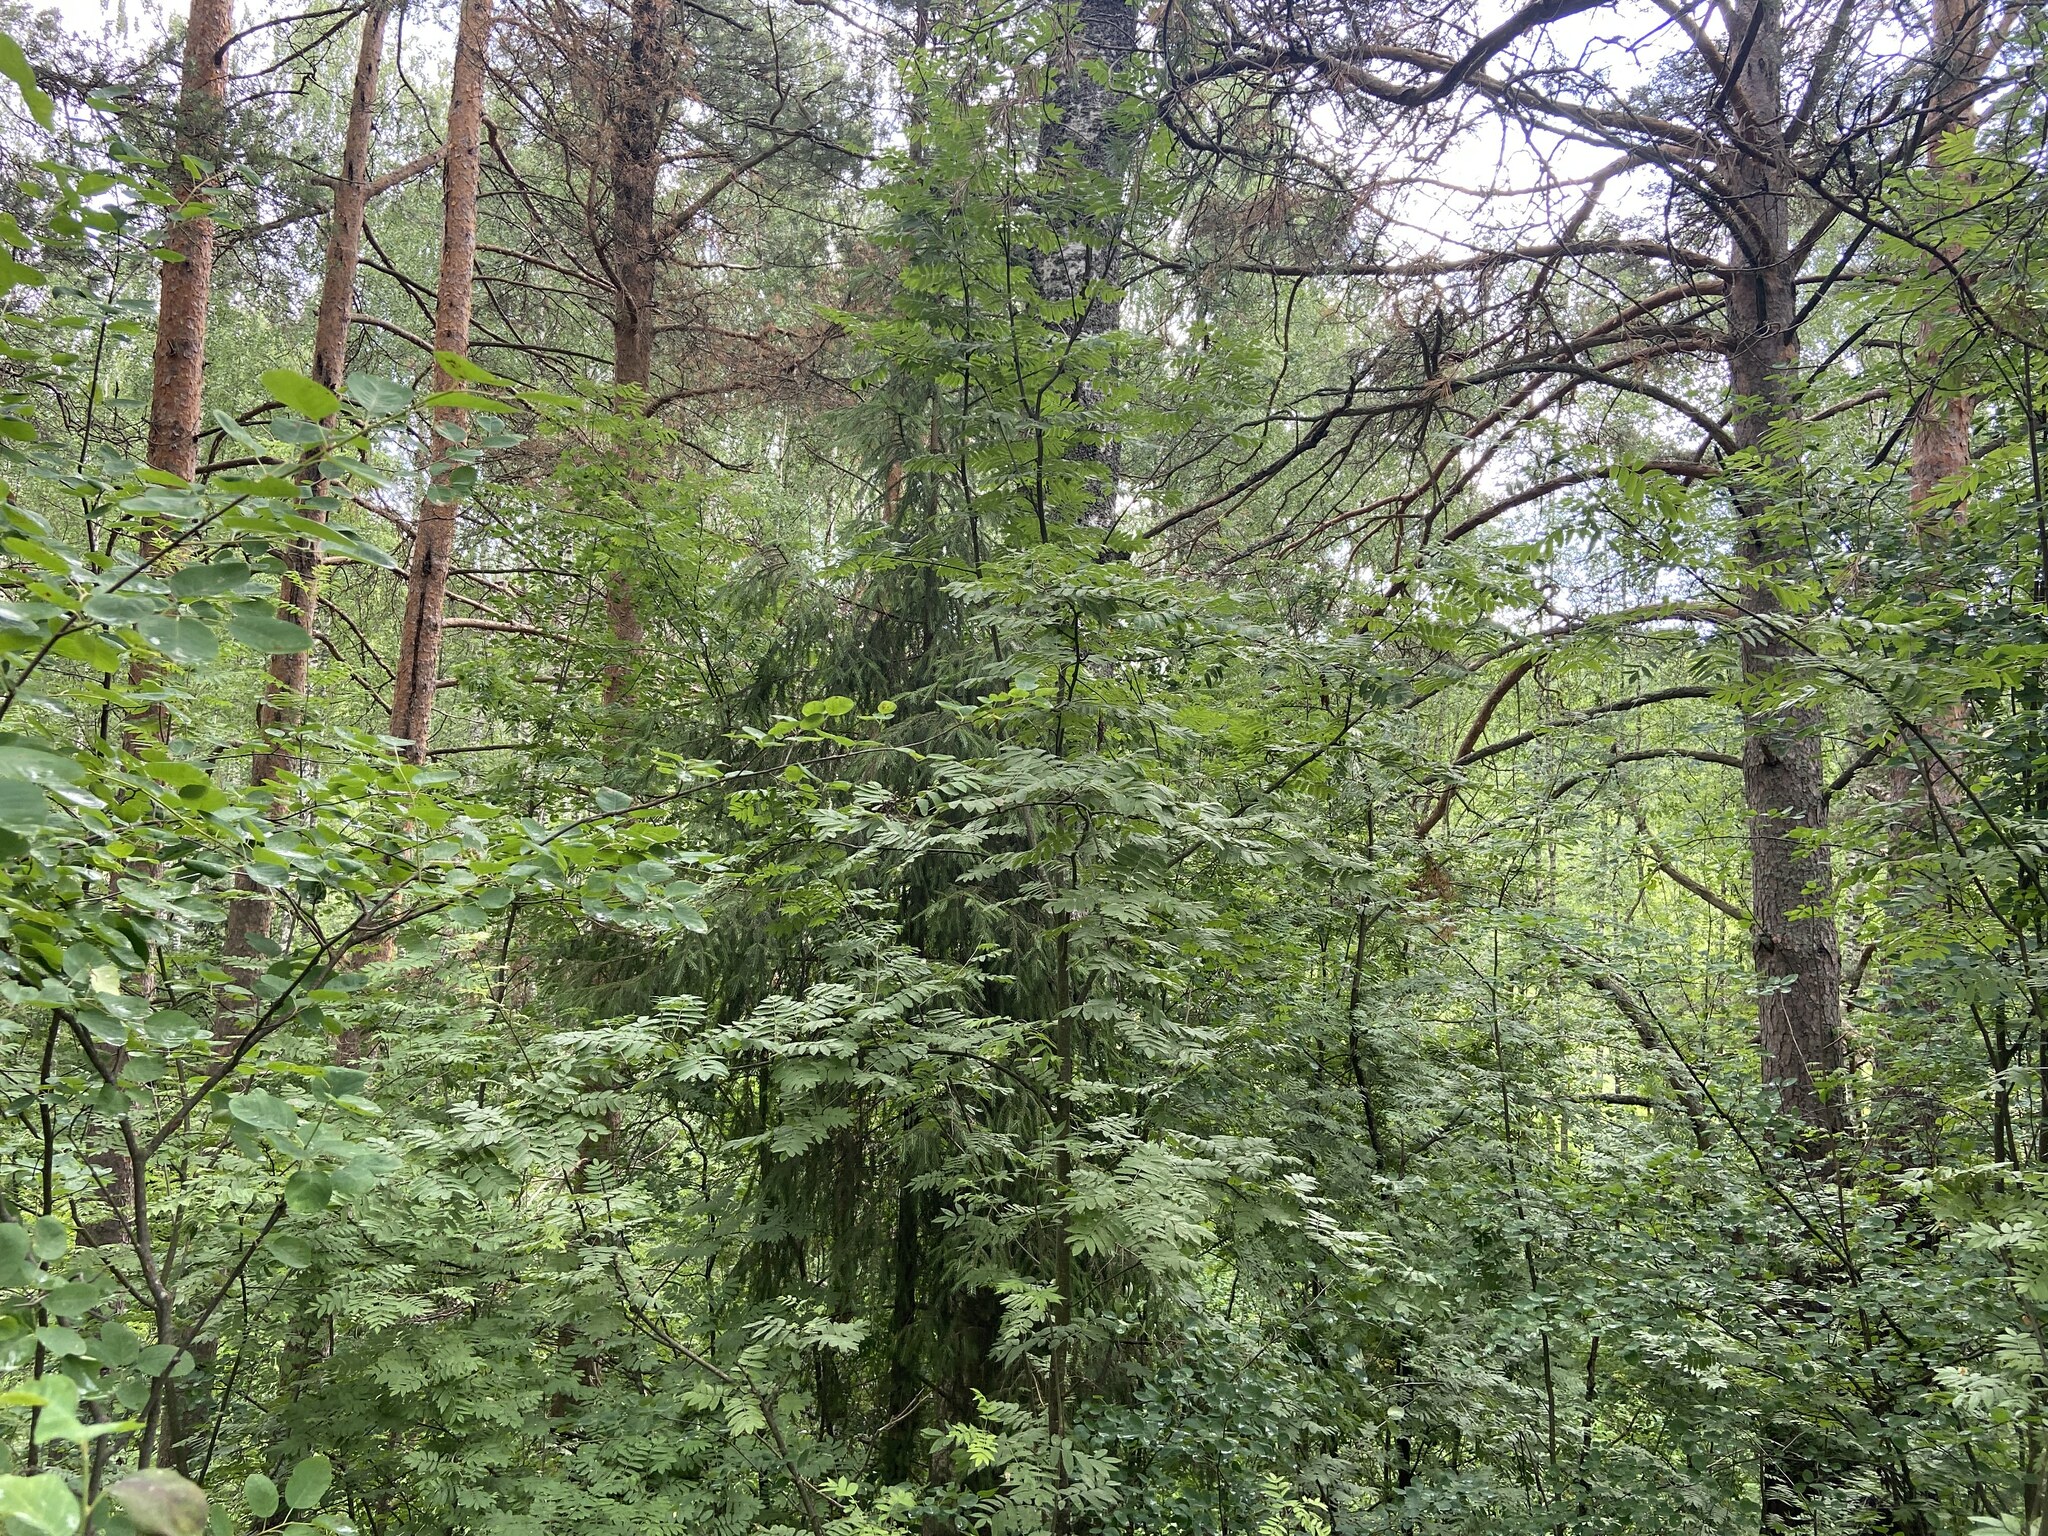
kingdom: Plantae
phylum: Tracheophyta
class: Magnoliopsida
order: Rosales
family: Rosaceae
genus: Sorbus
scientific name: Sorbus aucuparia
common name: Rowan
